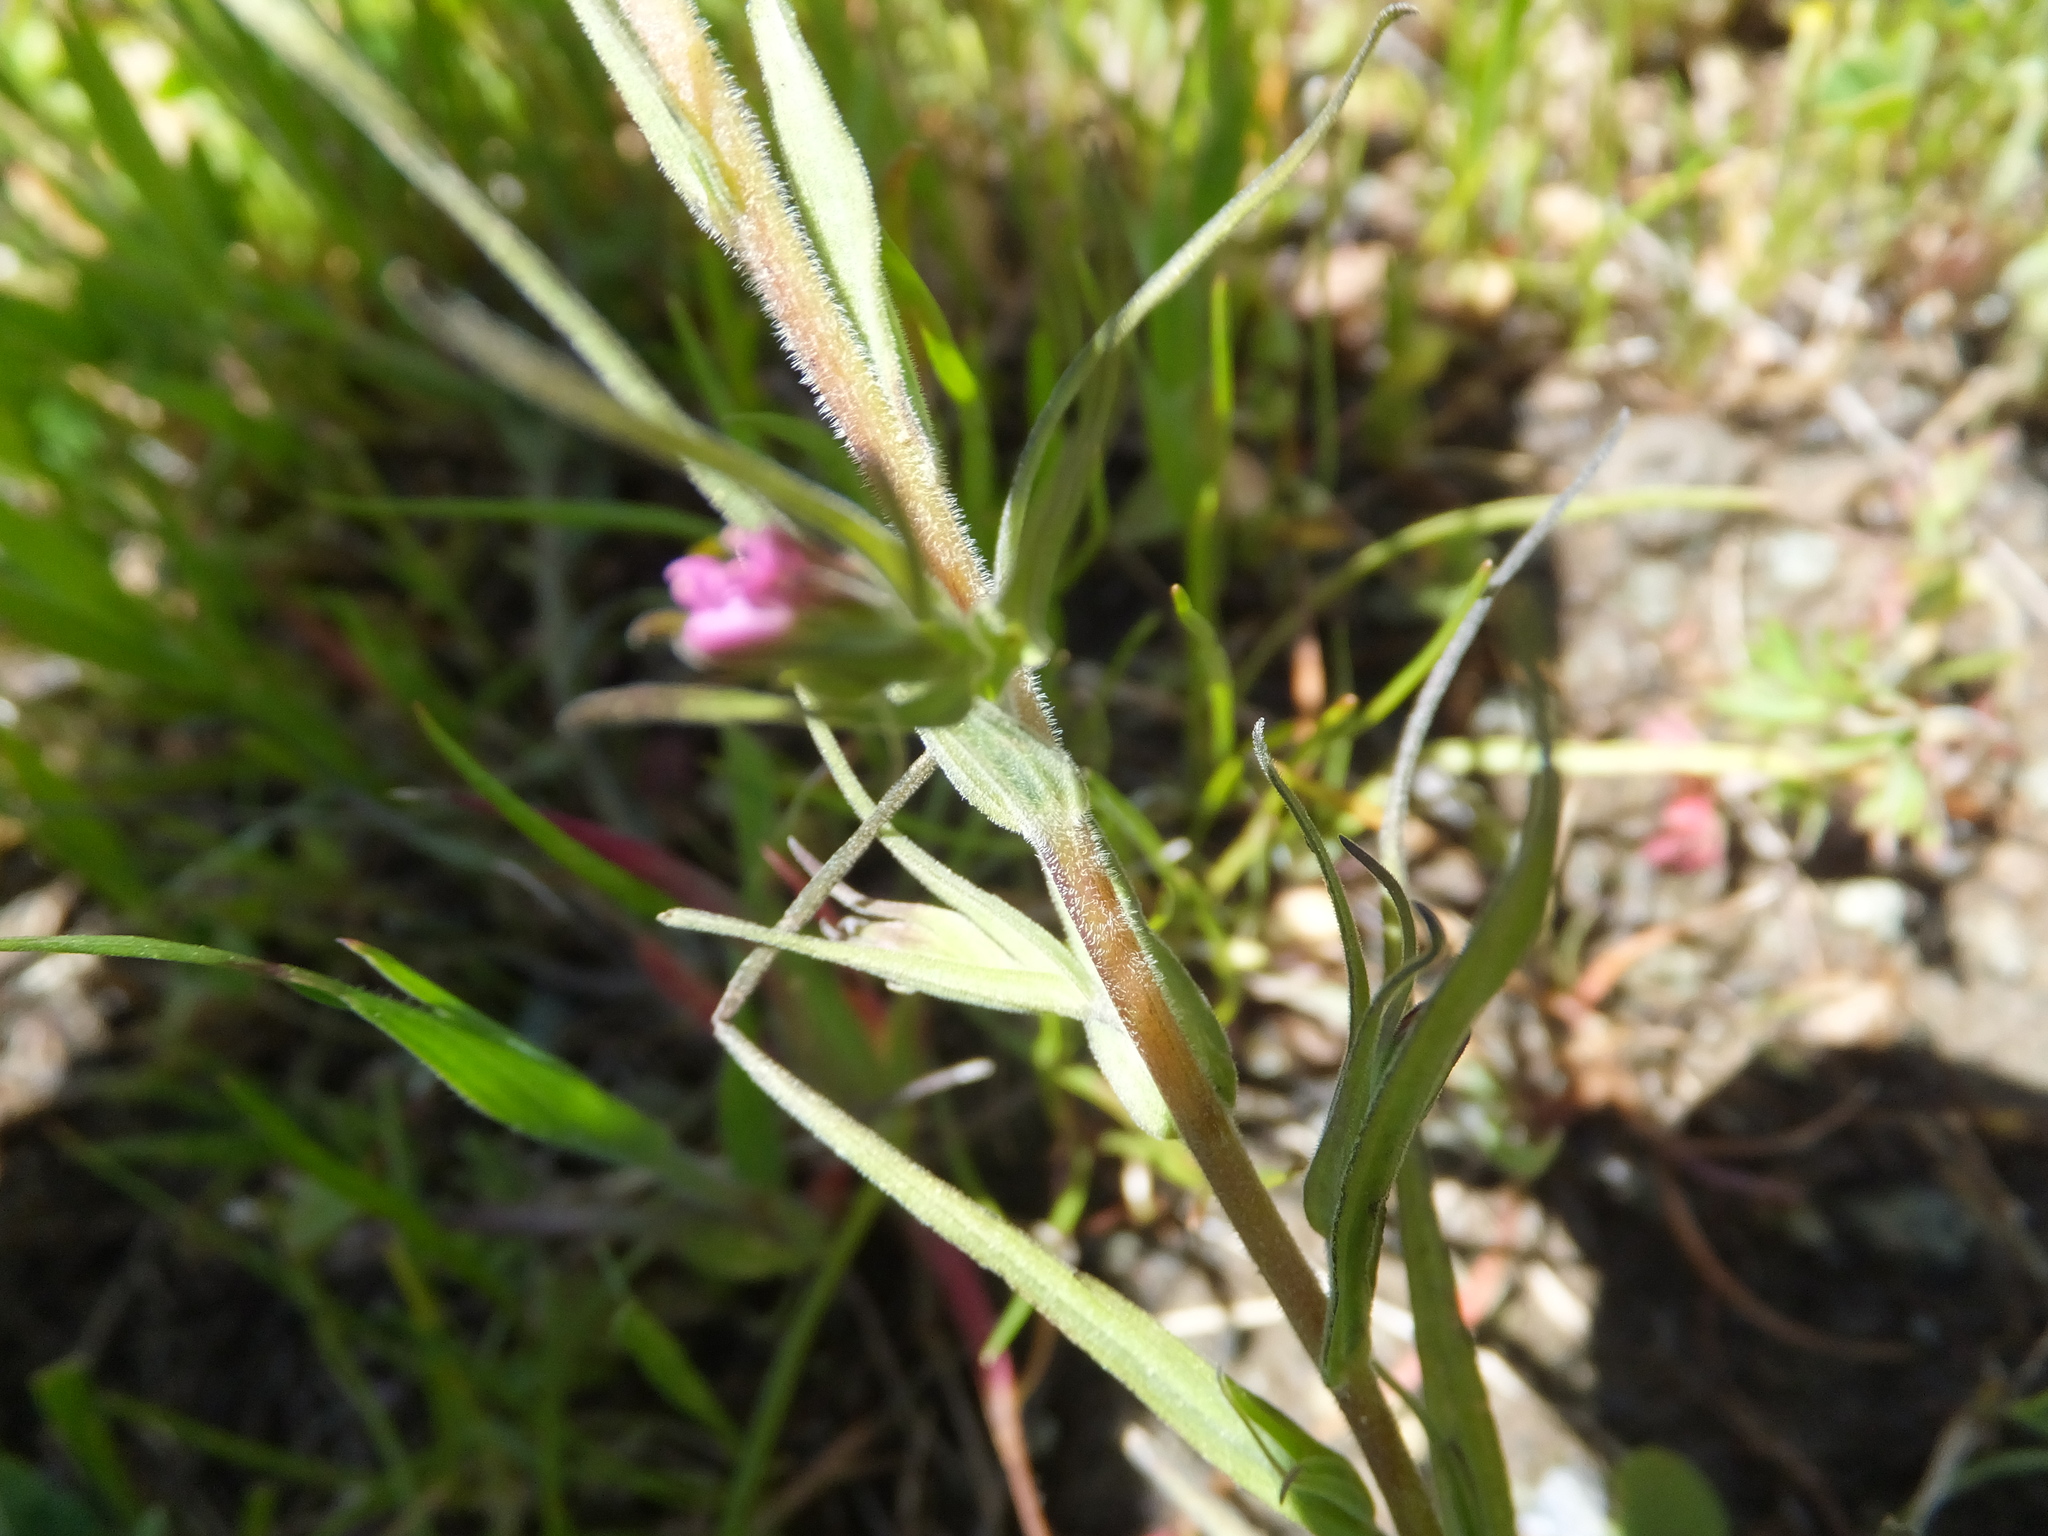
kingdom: Plantae
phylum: Tracheophyta
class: Magnoliopsida
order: Lamiales
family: Orobanchaceae
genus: Castilleja
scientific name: Castilleja densiflora
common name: Dense-flower indian paintbrush
